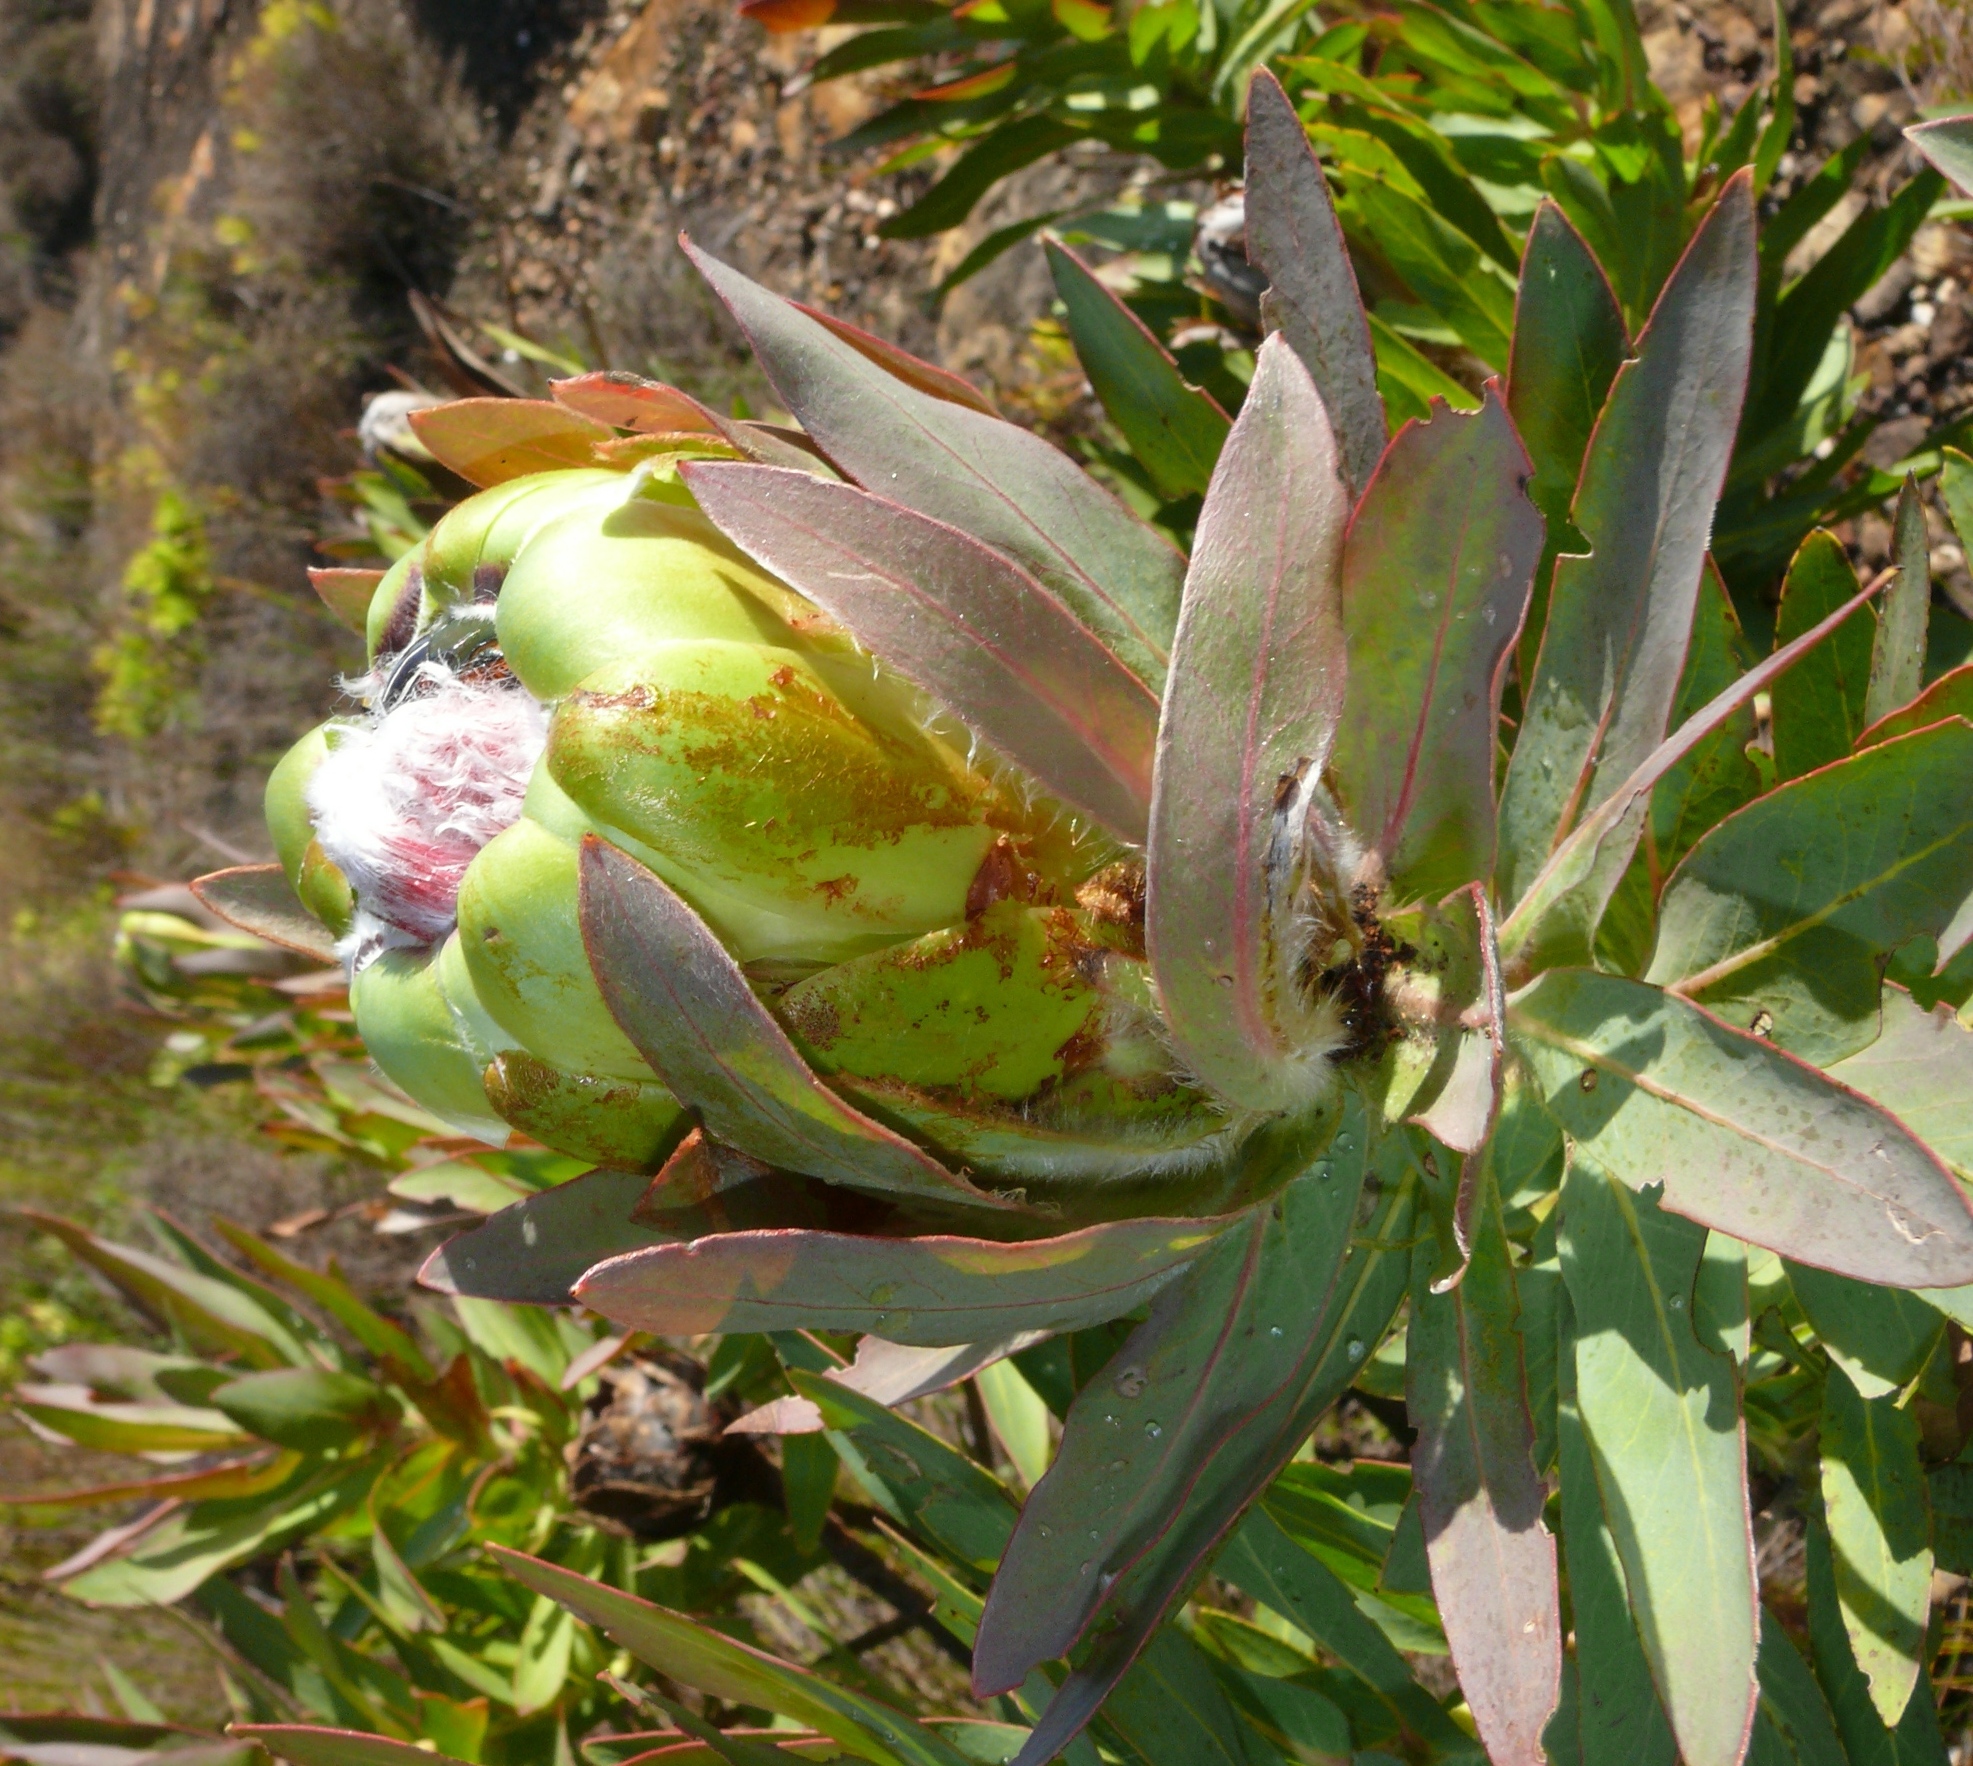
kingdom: Plantae
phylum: Tracheophyta
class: Magnoliopsida
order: Proteales
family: Proteaceae
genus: Protea
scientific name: Protea coronata
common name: Green sugarbush
